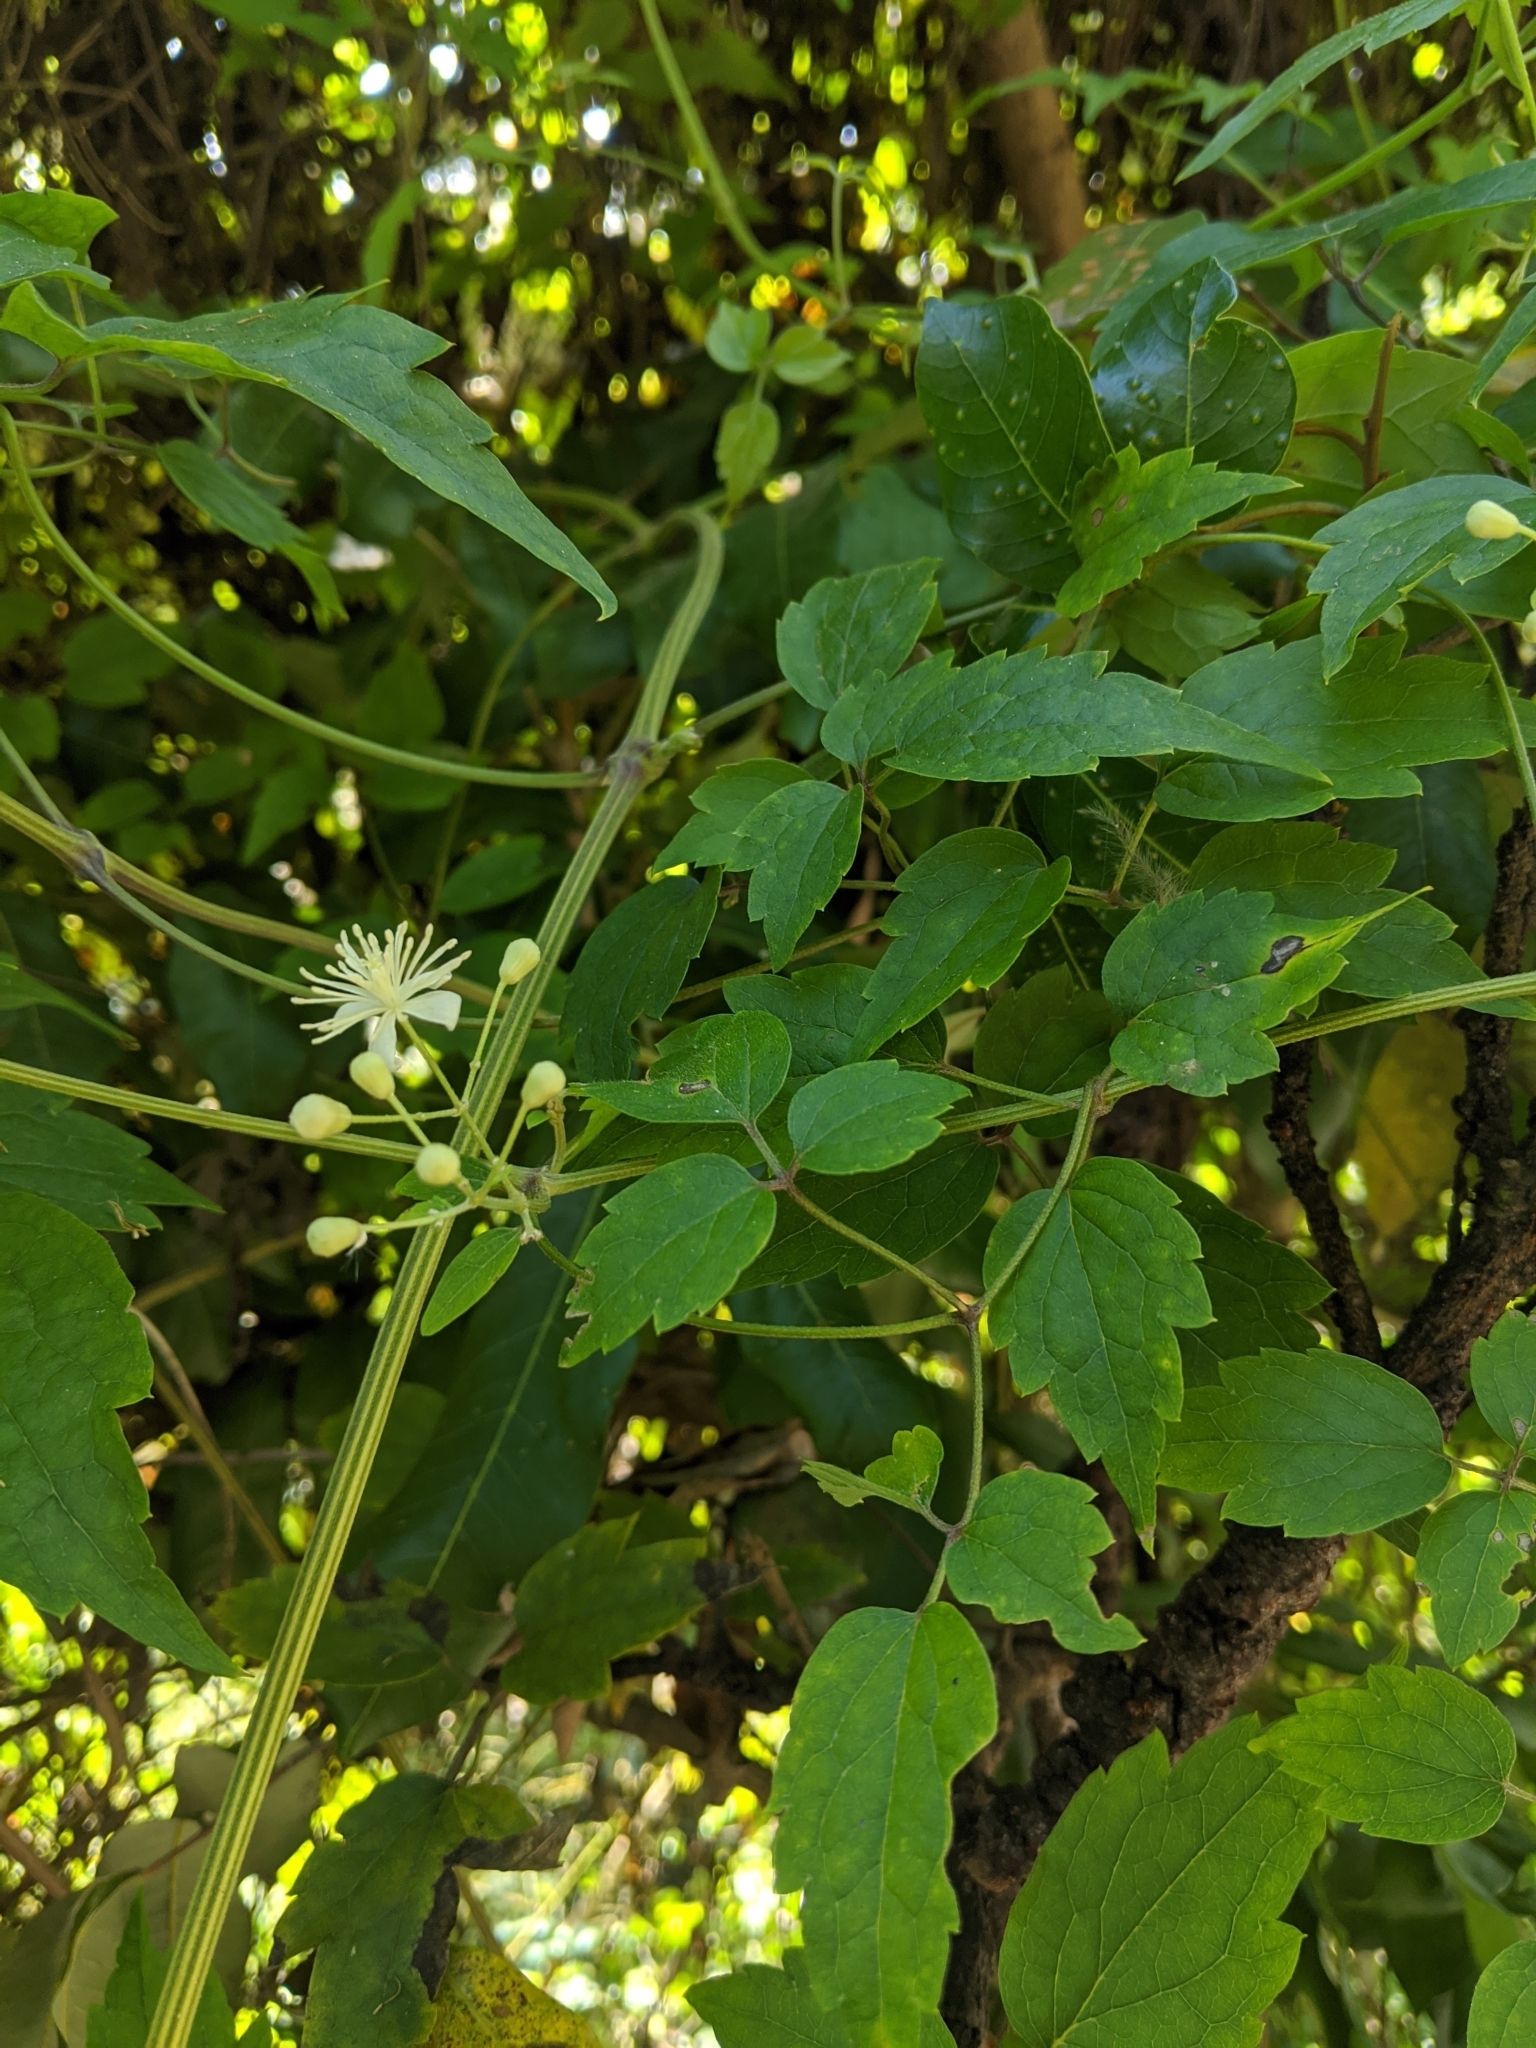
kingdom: Plantae
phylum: Tracheophyta
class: Magnoliopsida
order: Ranunculales
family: Ranunculaceae
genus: Clematis
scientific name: Clematis grata
